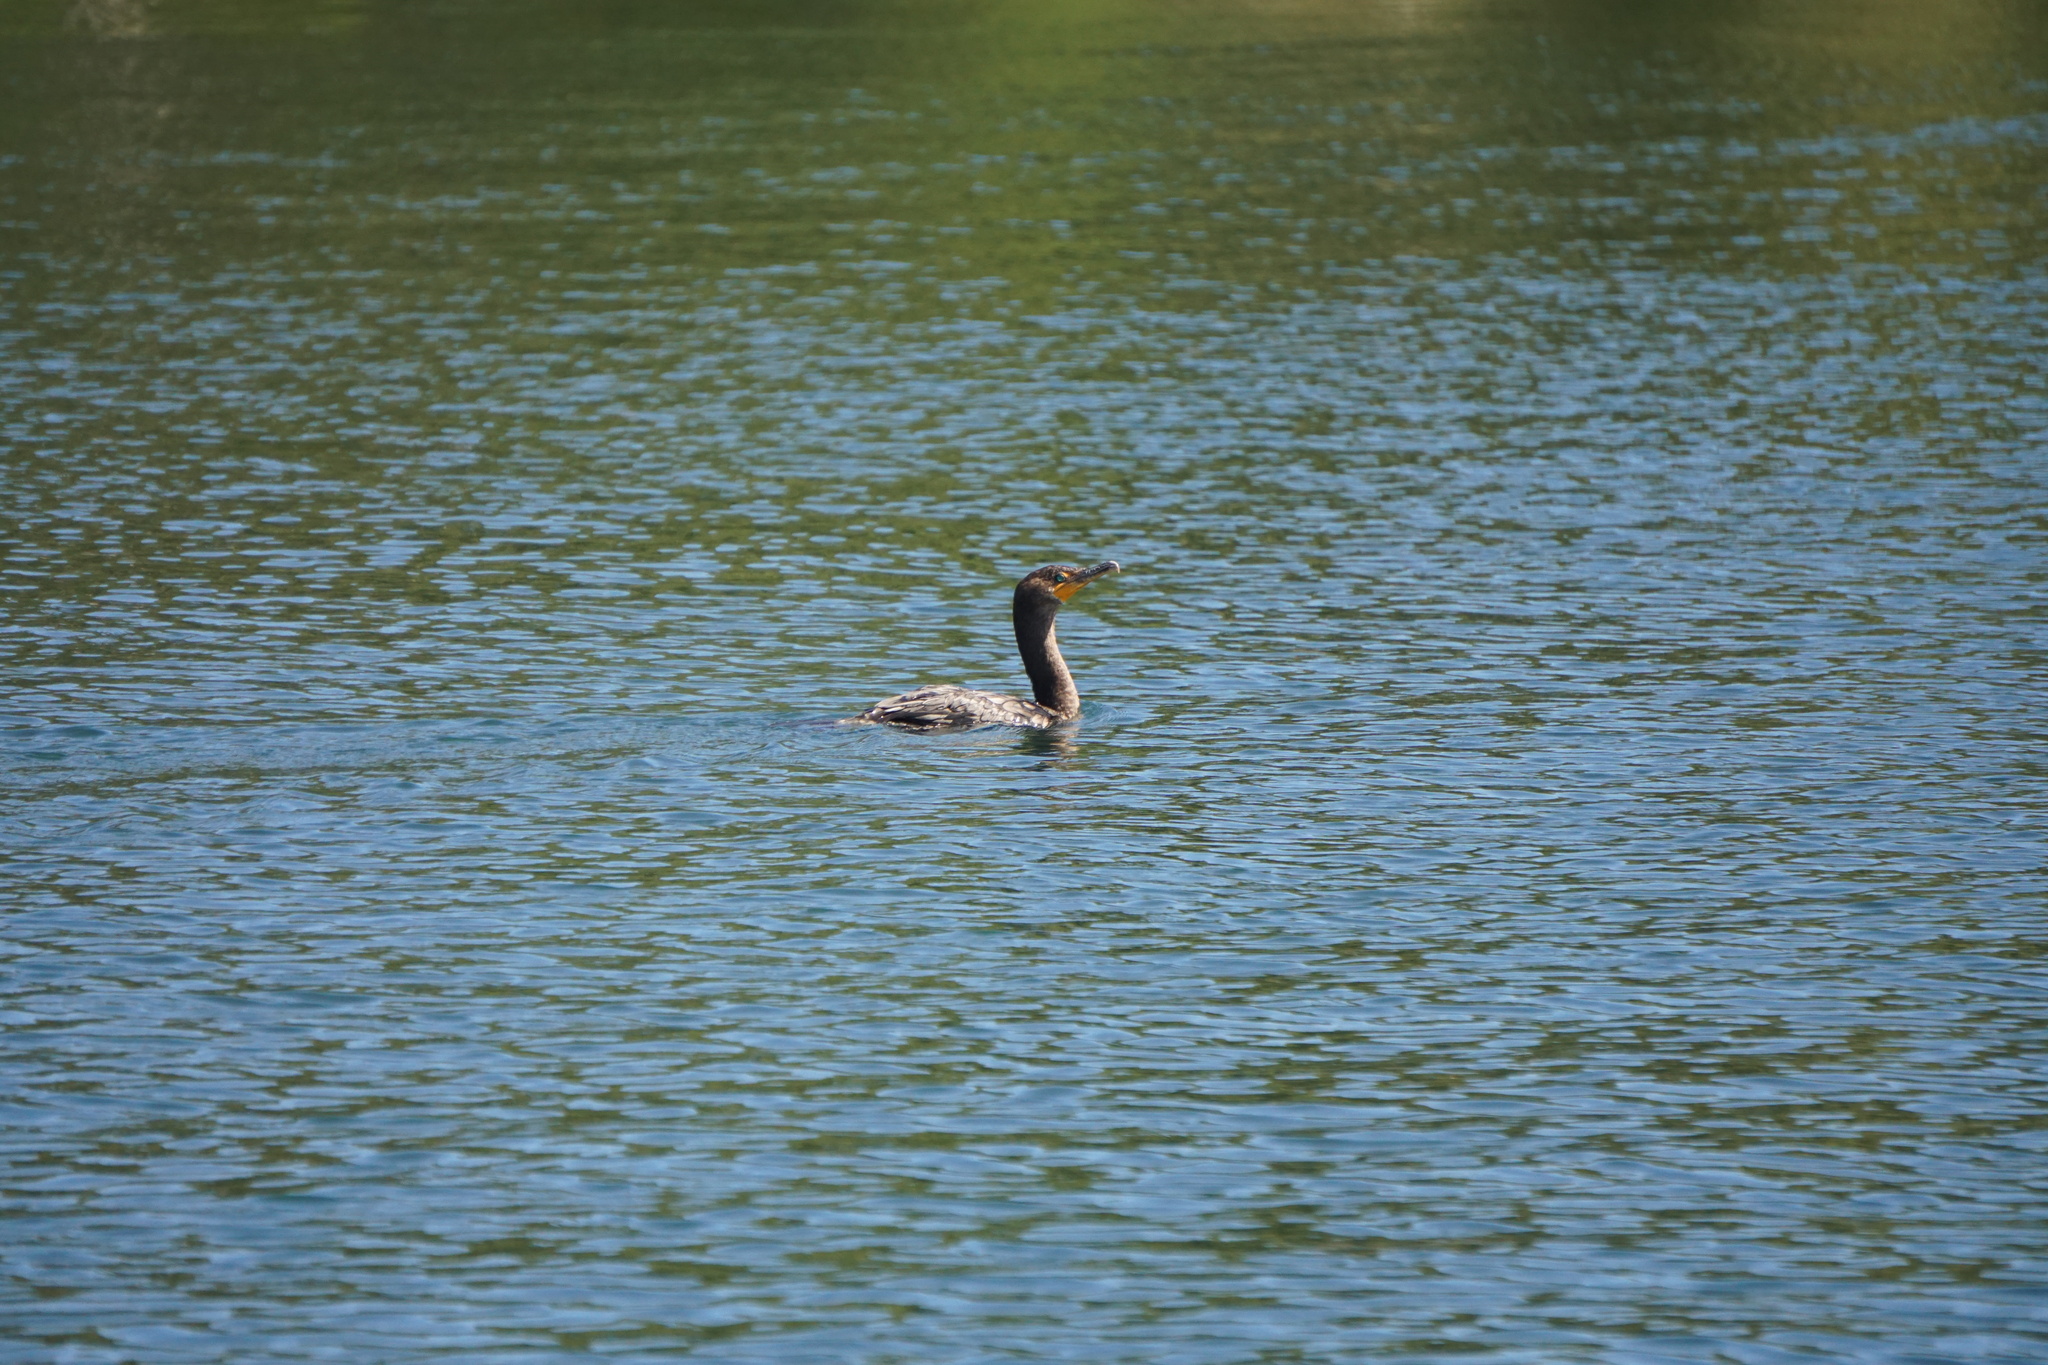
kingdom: Animalia
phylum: Chordata
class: Aves
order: Suliformes
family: Phalacrocoracidae
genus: Phalacrocorax
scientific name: Phalacrocorax auritus
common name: Double-crested cormorant
